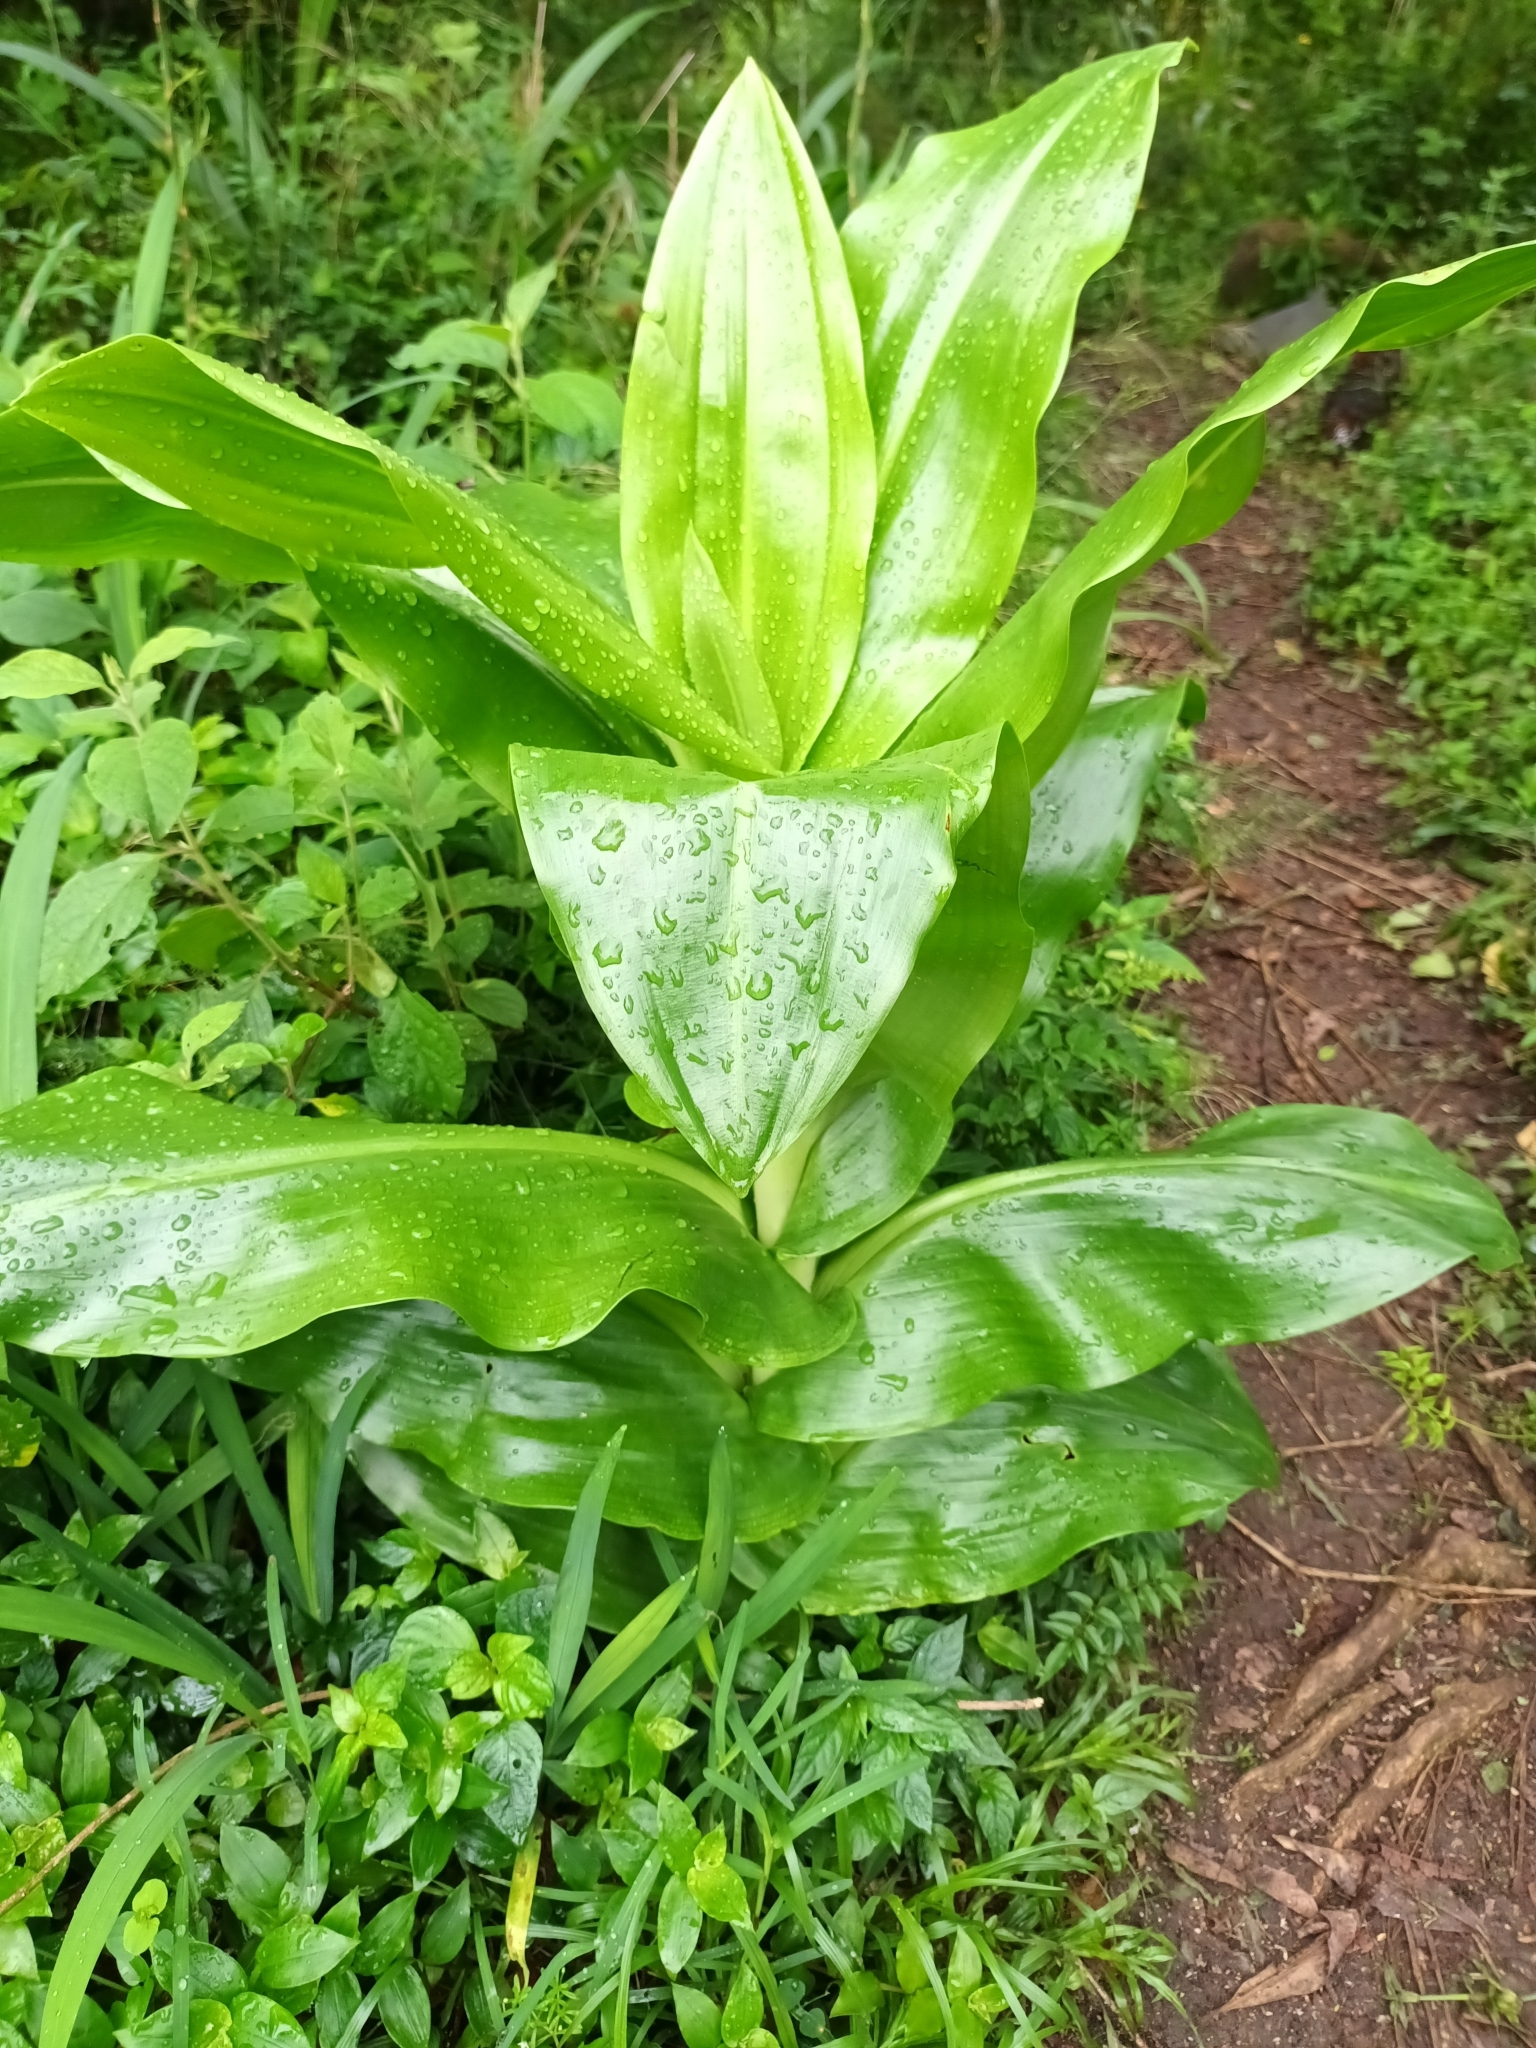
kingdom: Plantae
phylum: Tracheophyta
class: Liliopsida
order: Asparagales
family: Amaryllidaceae
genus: Scadoxus
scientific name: Scadoxus puniceus
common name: Royal-paintbrush
